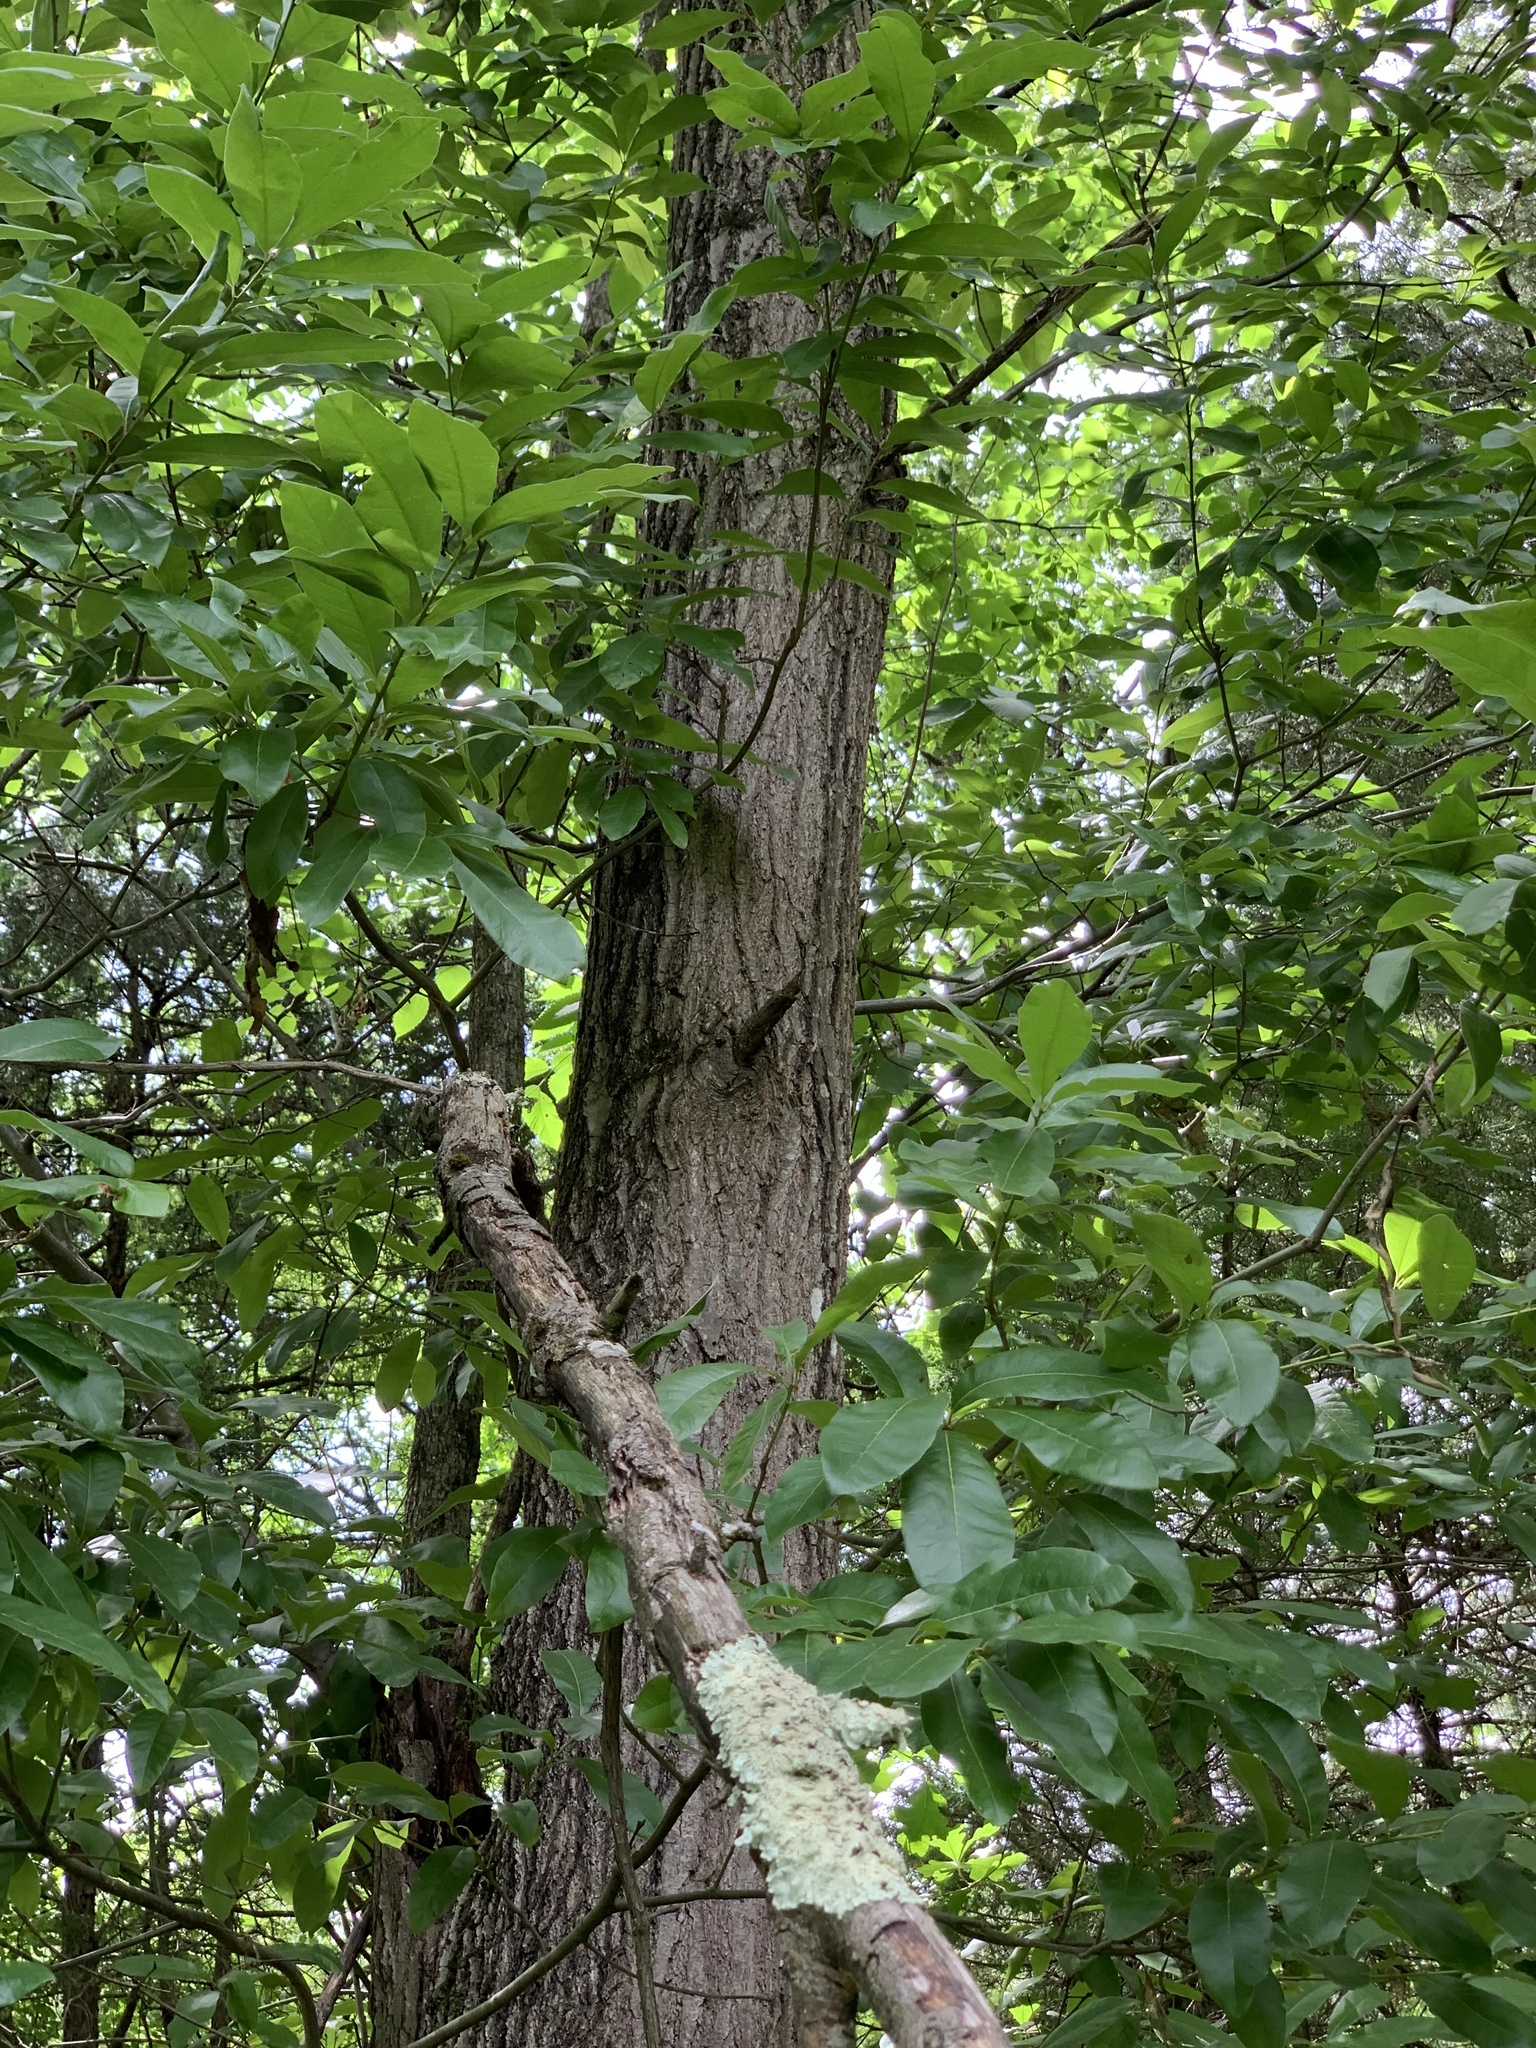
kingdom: Plantae
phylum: Tracheophyta
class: Magnoliopsida
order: Fagales
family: Fagaceae
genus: Quercus
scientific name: Quercus imbricaria
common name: Shingle oak
